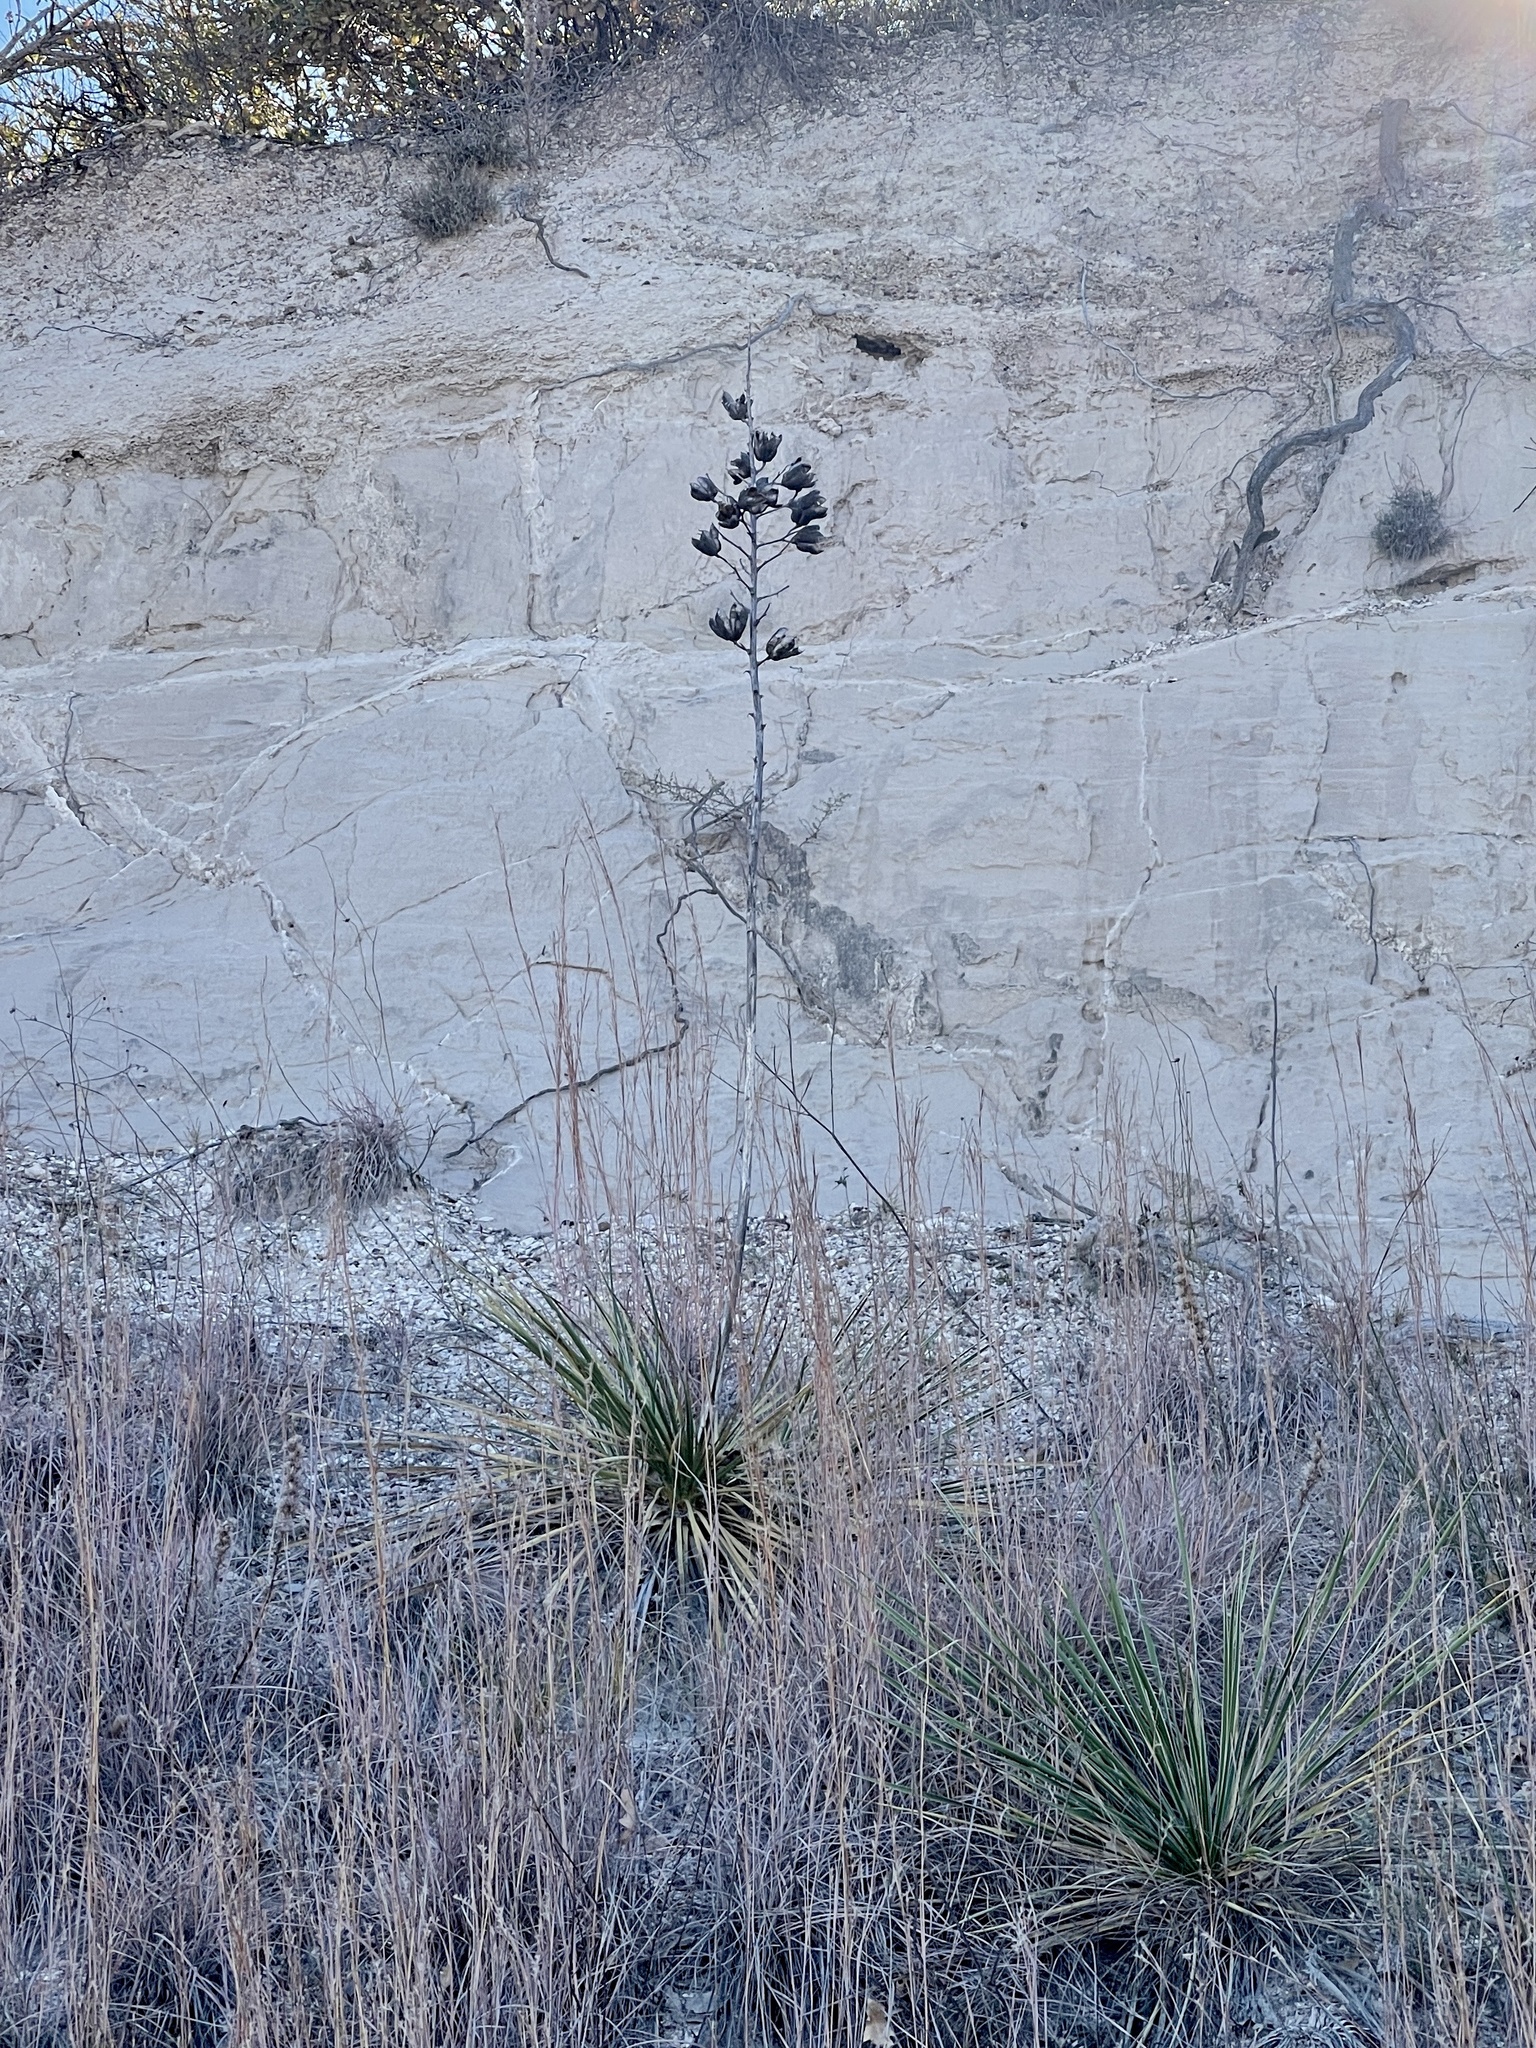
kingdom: Plantae
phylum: Tracheophyta
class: Liliopsida
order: Asparagales
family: Asparagaceae
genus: Yucca
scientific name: Yucca campestris
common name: Plains yucca
